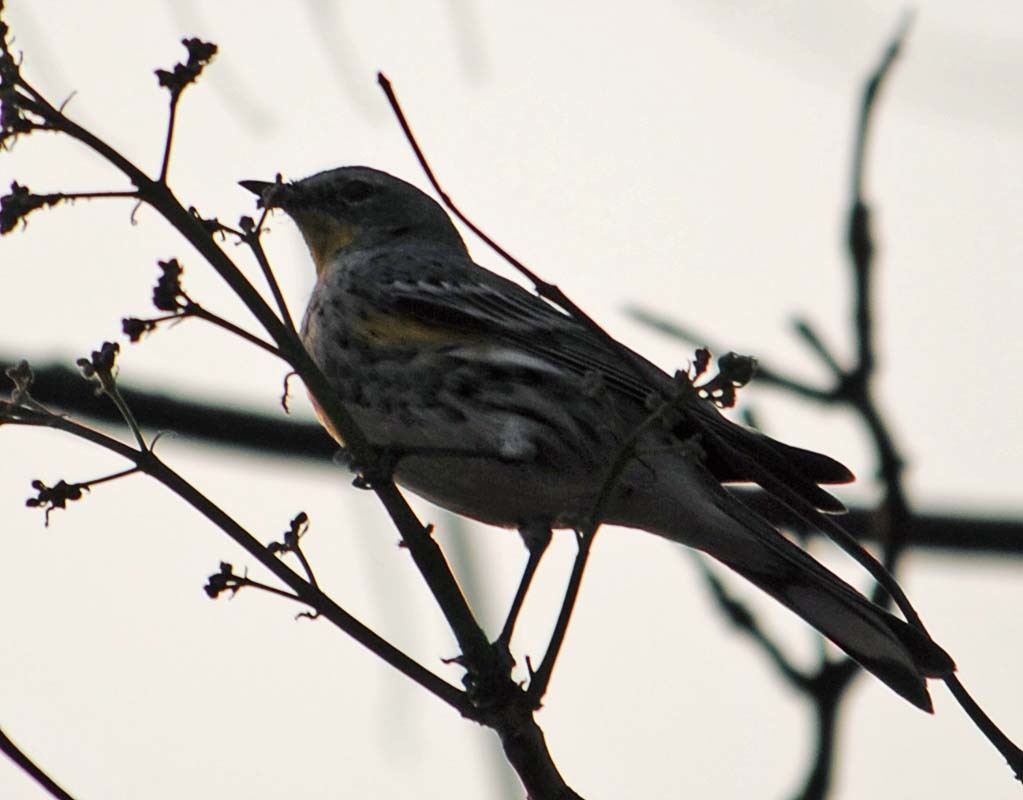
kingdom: Animalia
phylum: Chordata
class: Aves
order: Passeriformes
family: Parulidae
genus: Setophaga
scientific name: Setophaga auduboni
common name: Audubon's warbler
